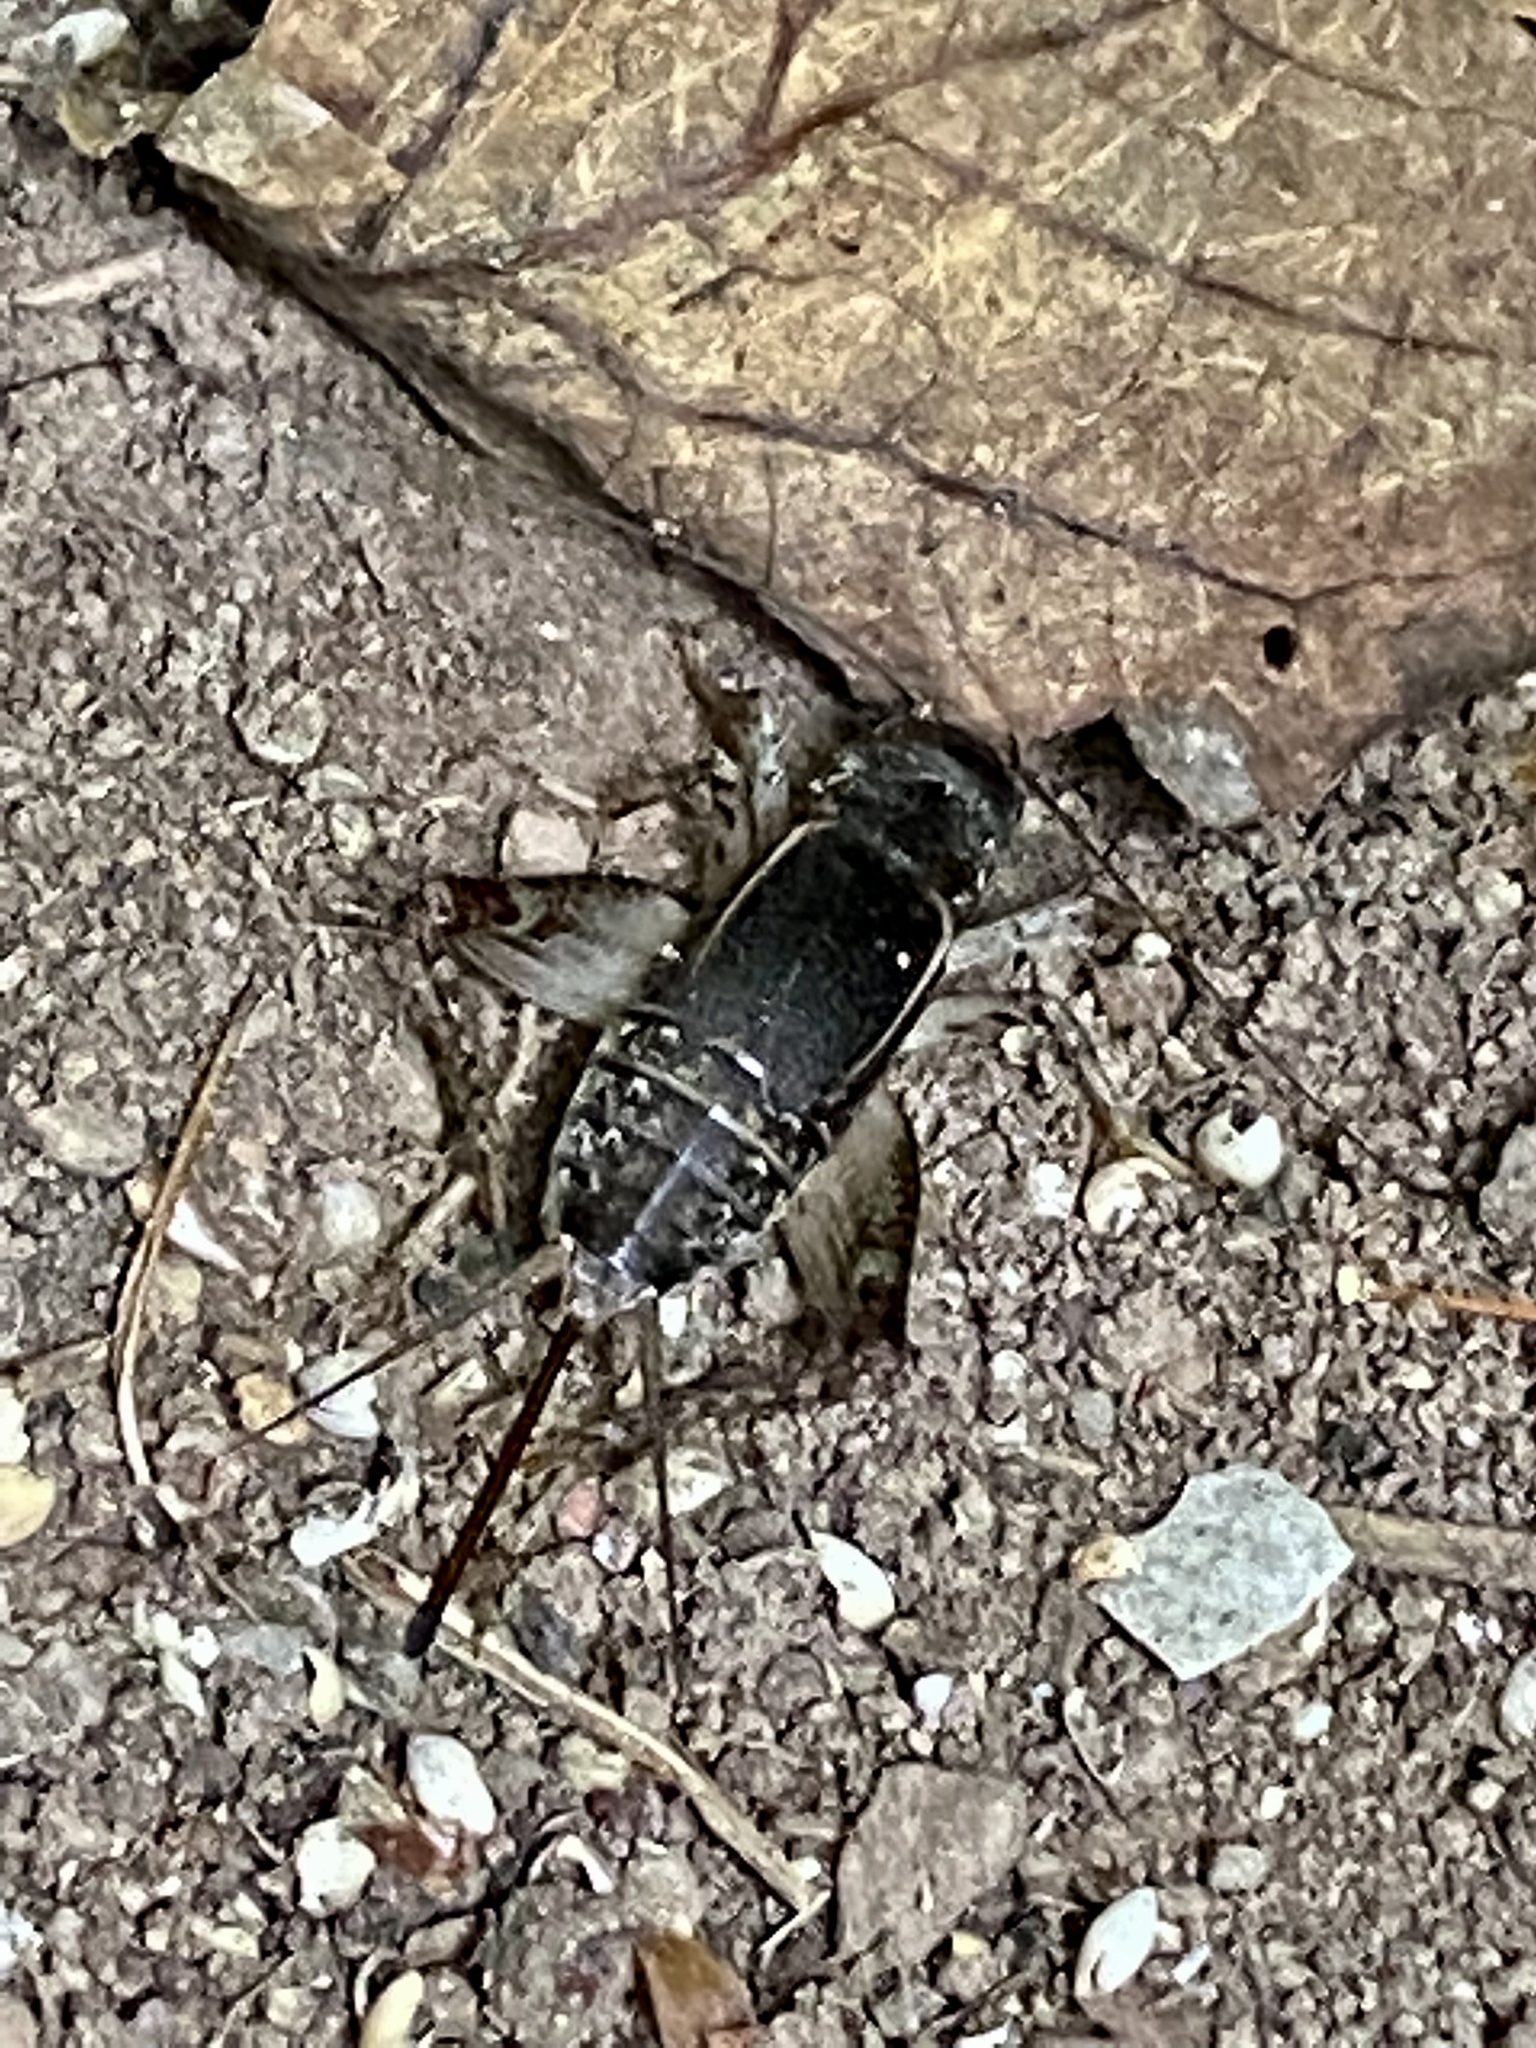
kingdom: Animalia
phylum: Arthropoda
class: Insecta
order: Orthoptera
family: Gryllidae
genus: Velarifictorus
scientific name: Velarifictorus micado
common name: Japanese burrowing cricket
